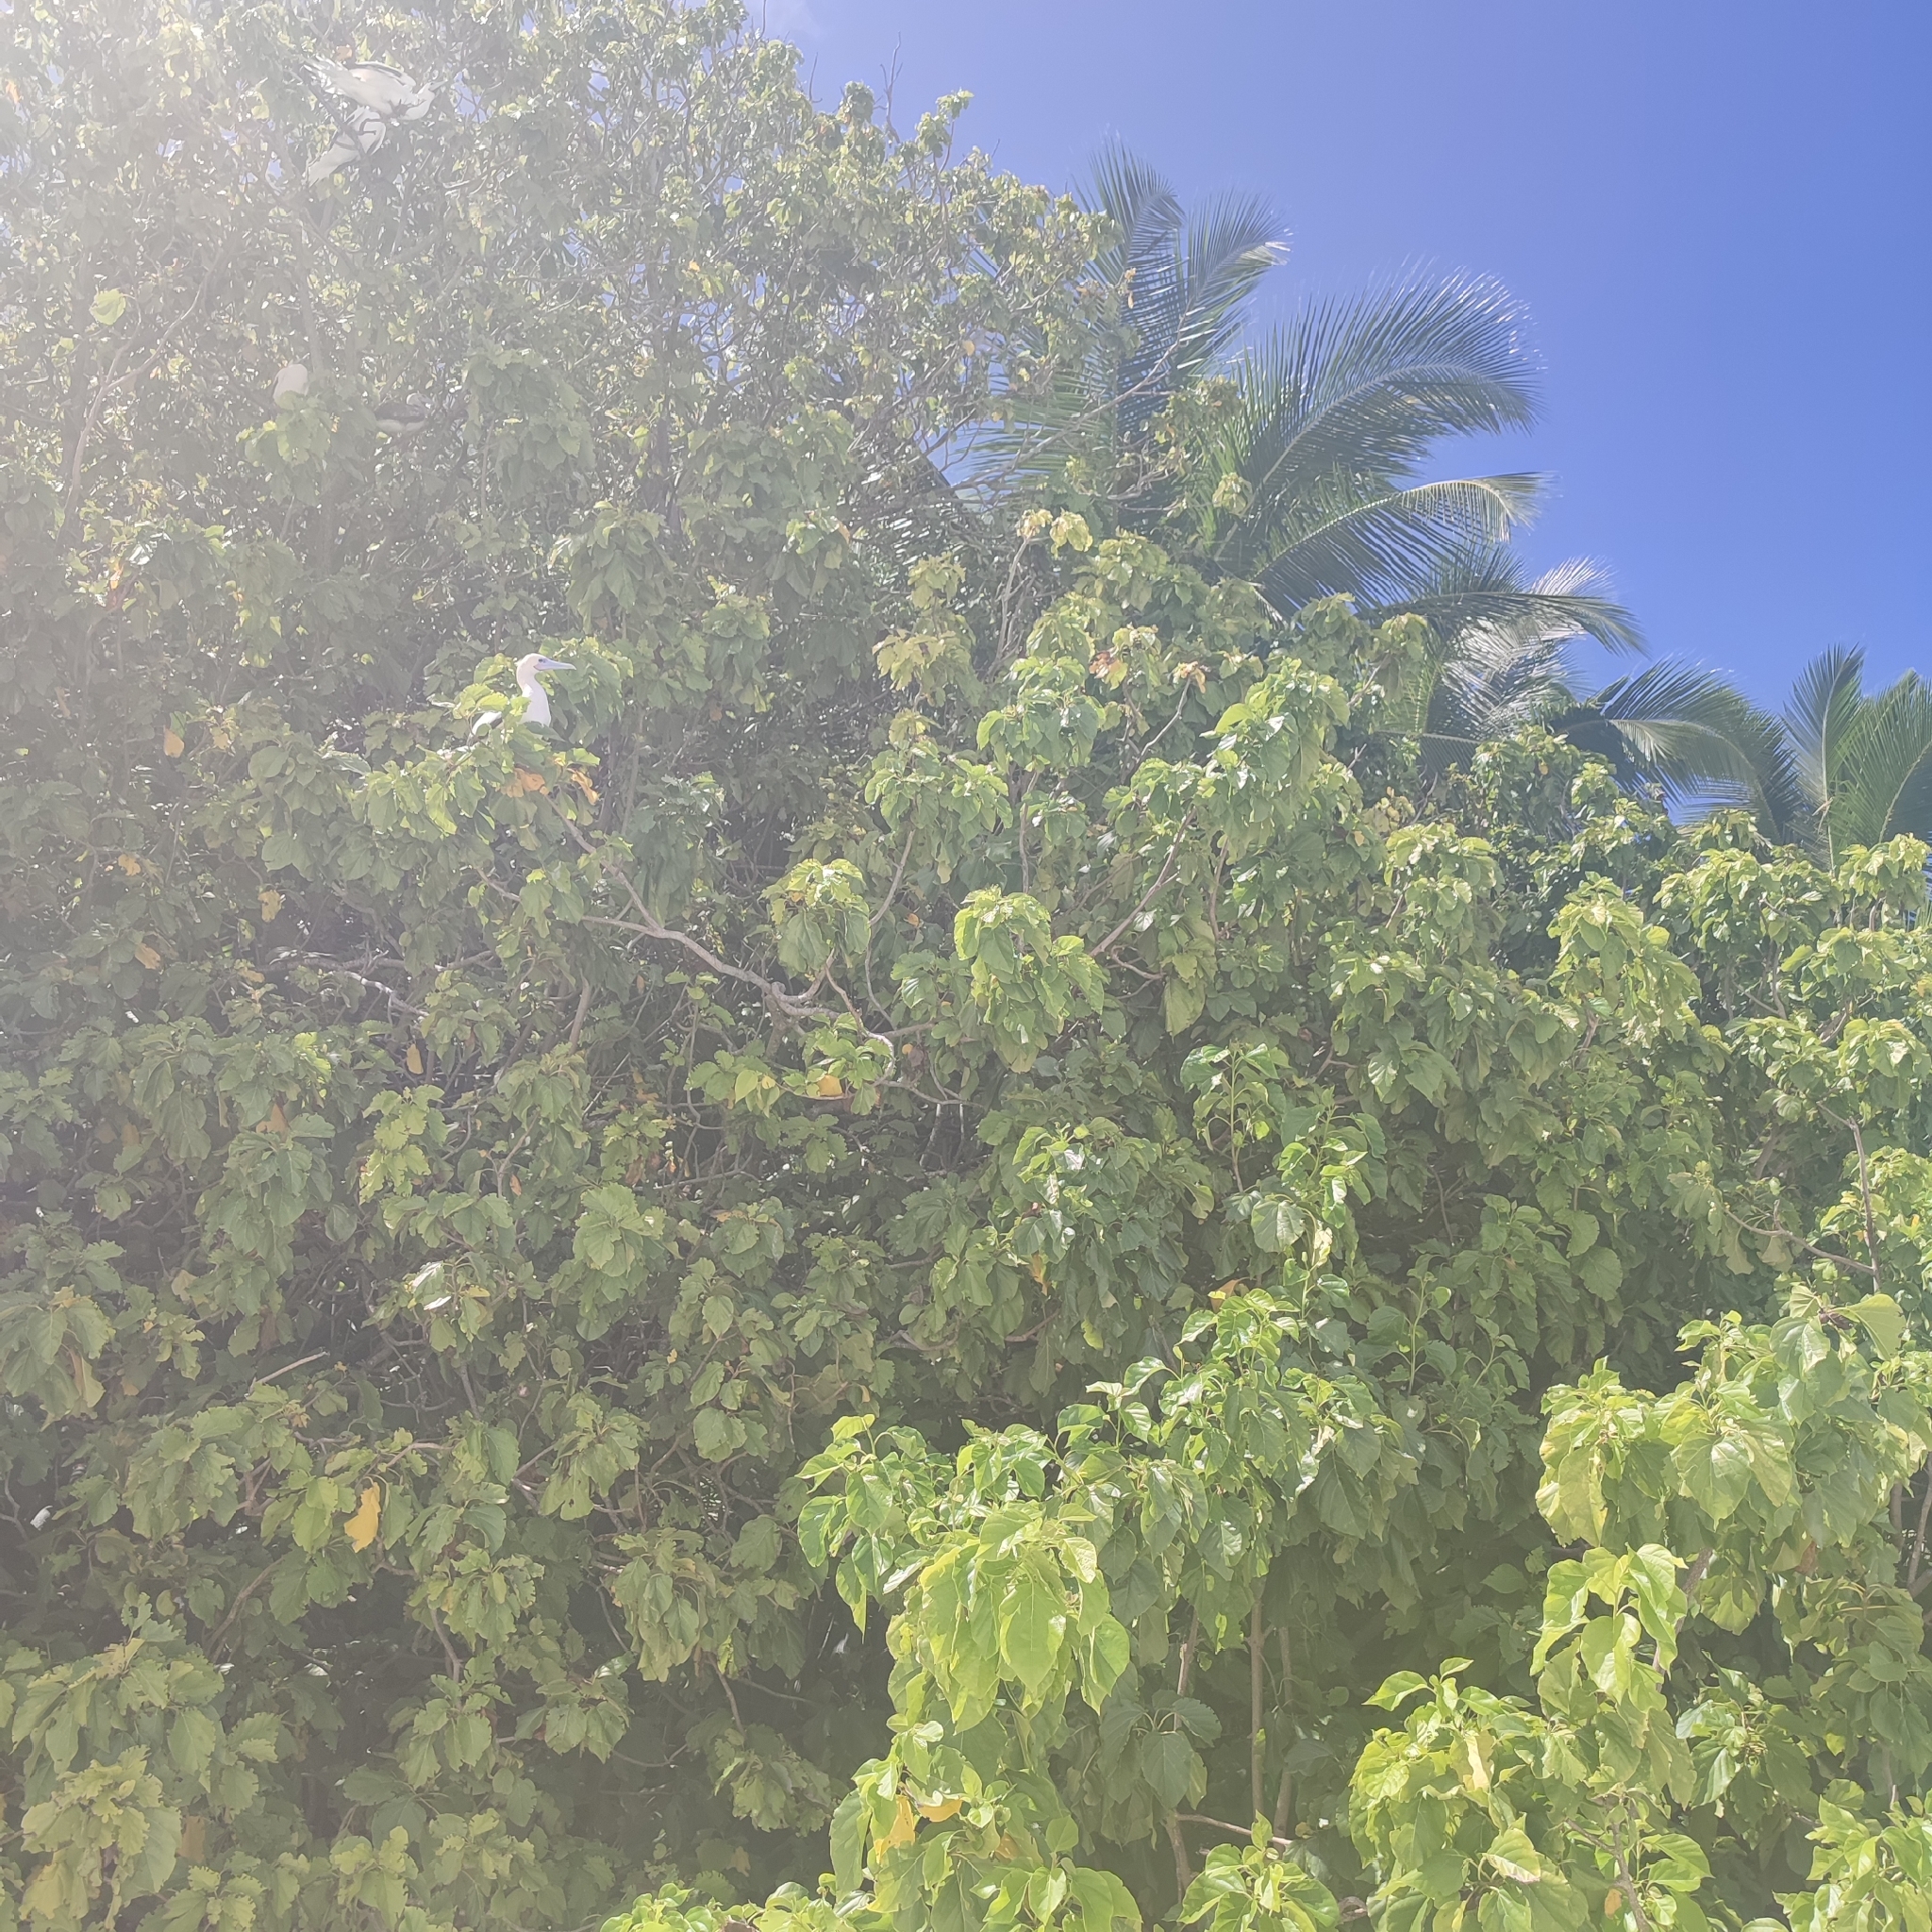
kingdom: Animalia
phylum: Chordata
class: Aves
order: Suliformes
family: Sulidae
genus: Sula
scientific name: Sula sula
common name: Red-footed booby
